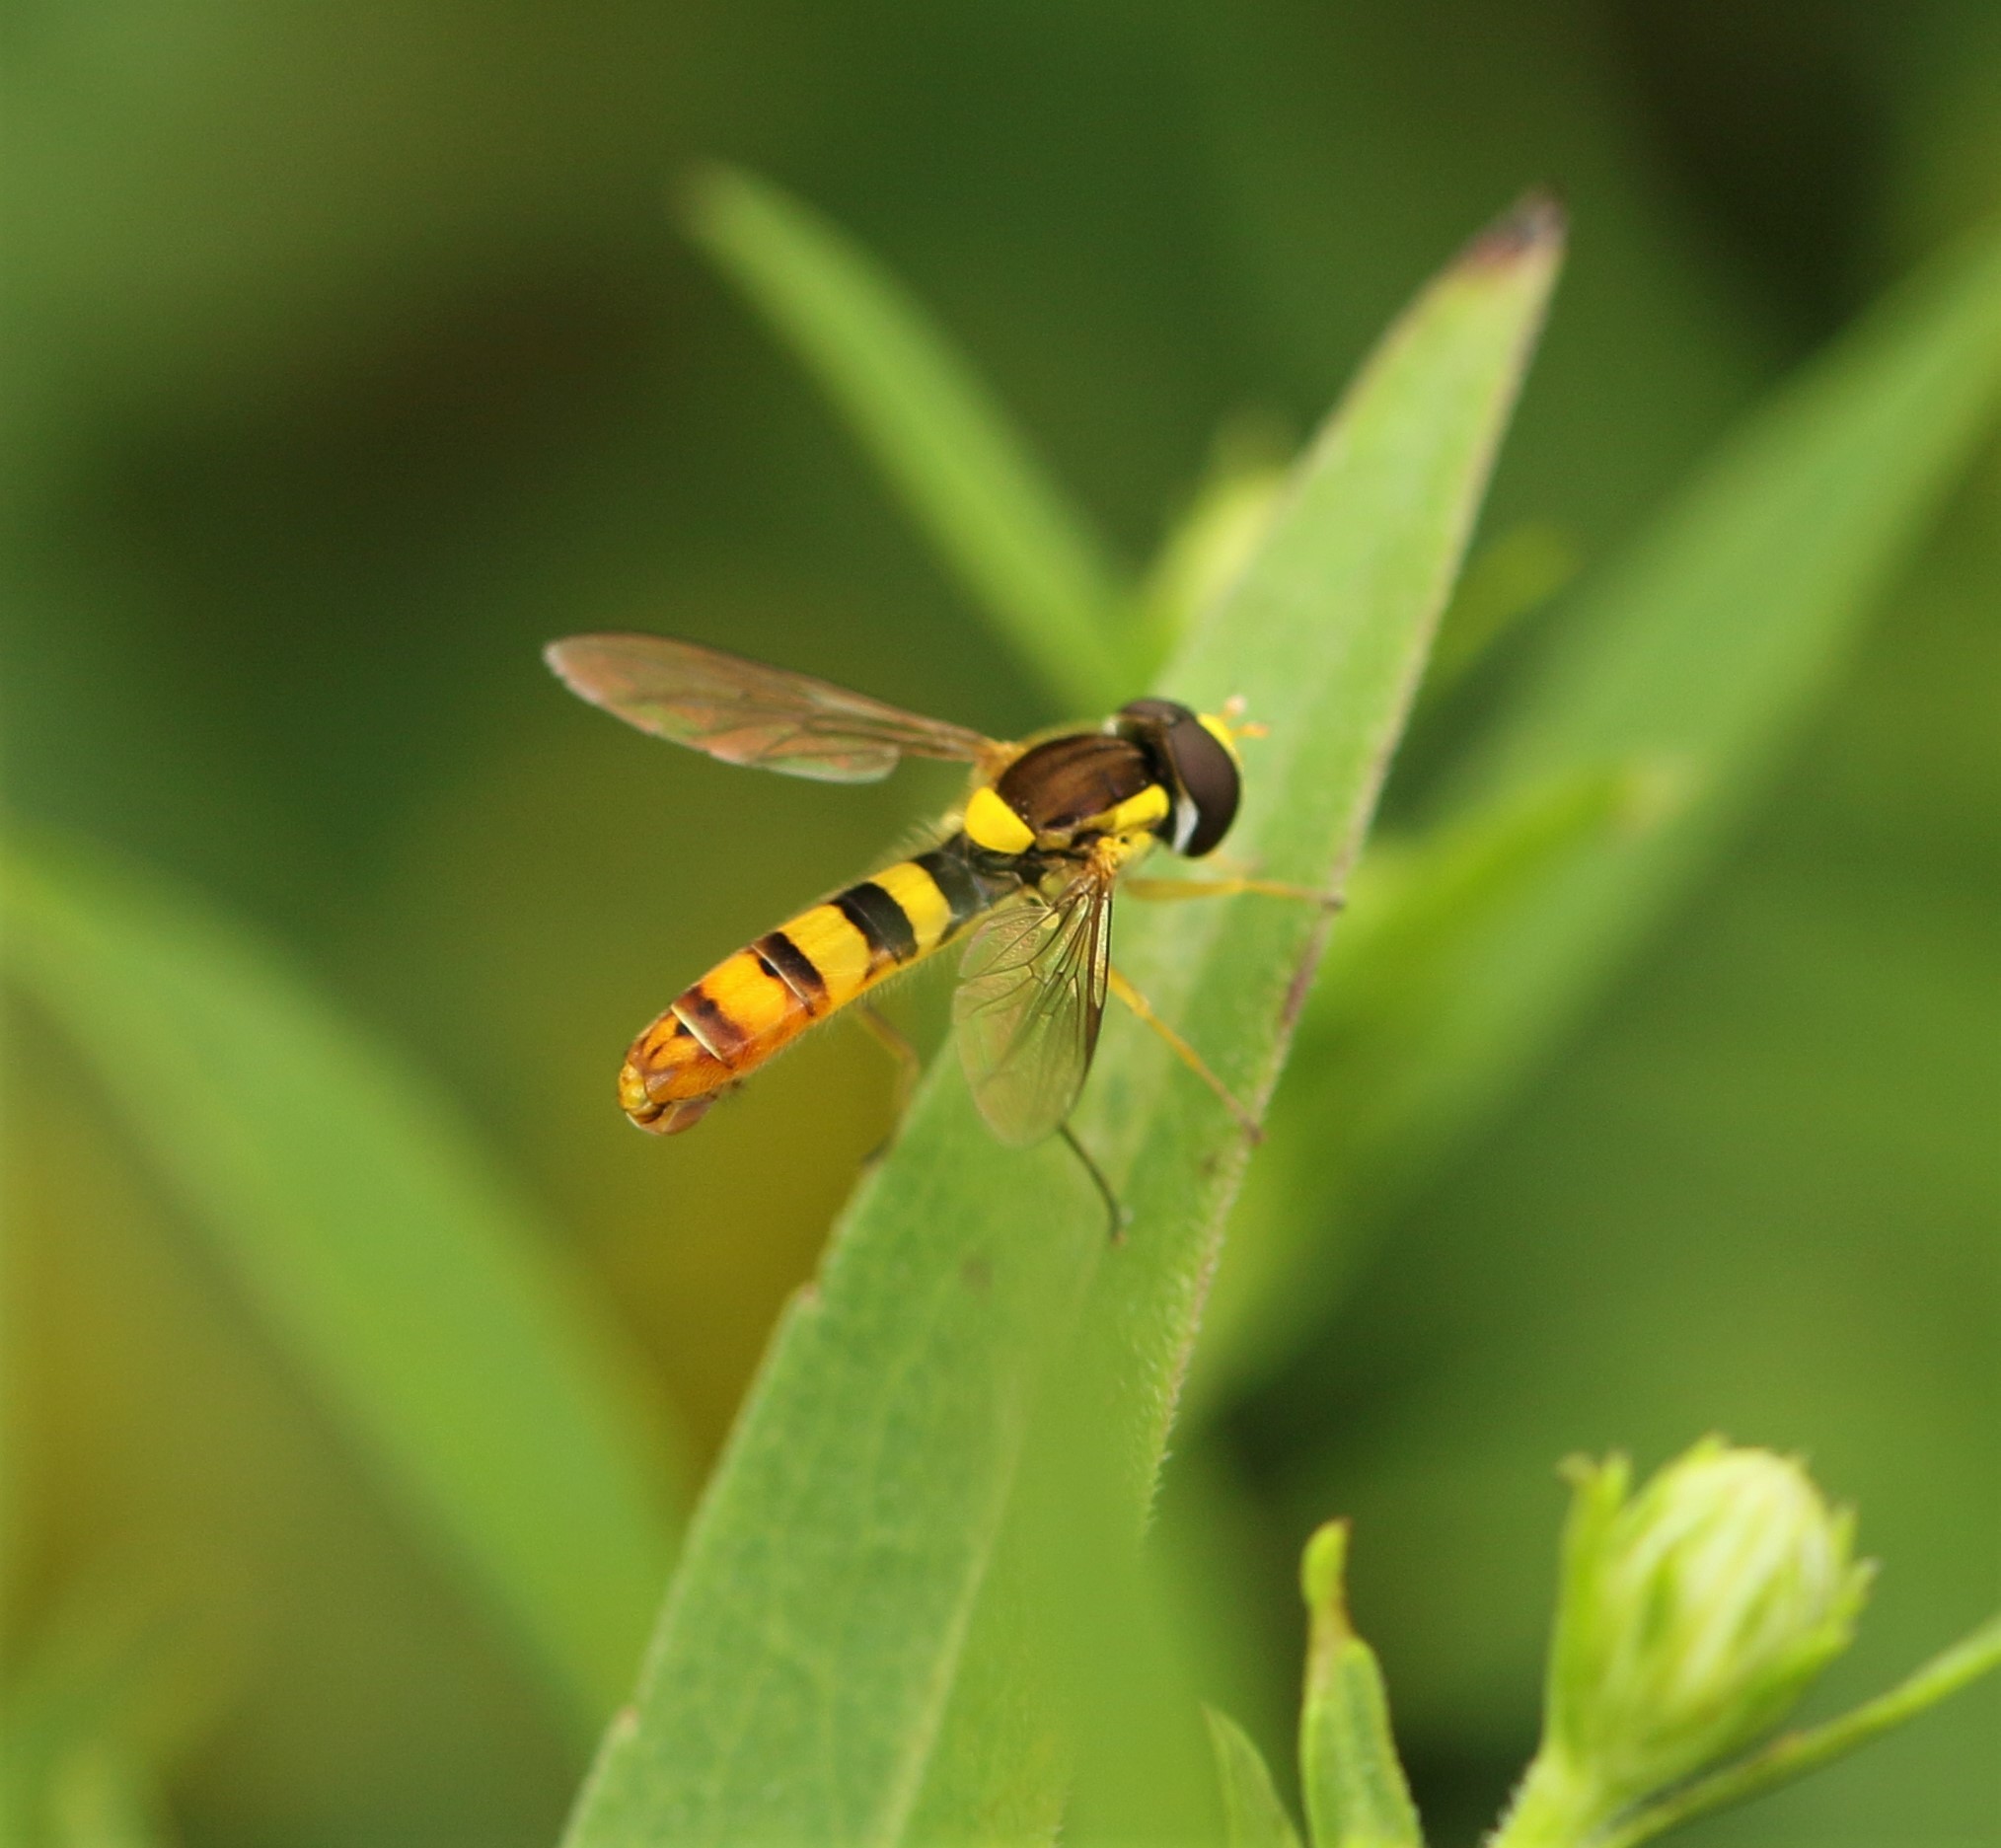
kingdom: Animalia
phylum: Arthropoda
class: Insecta
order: Diptera
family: Syrphidae
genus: Sphaerophoria
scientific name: Sphaerophoria philantha
